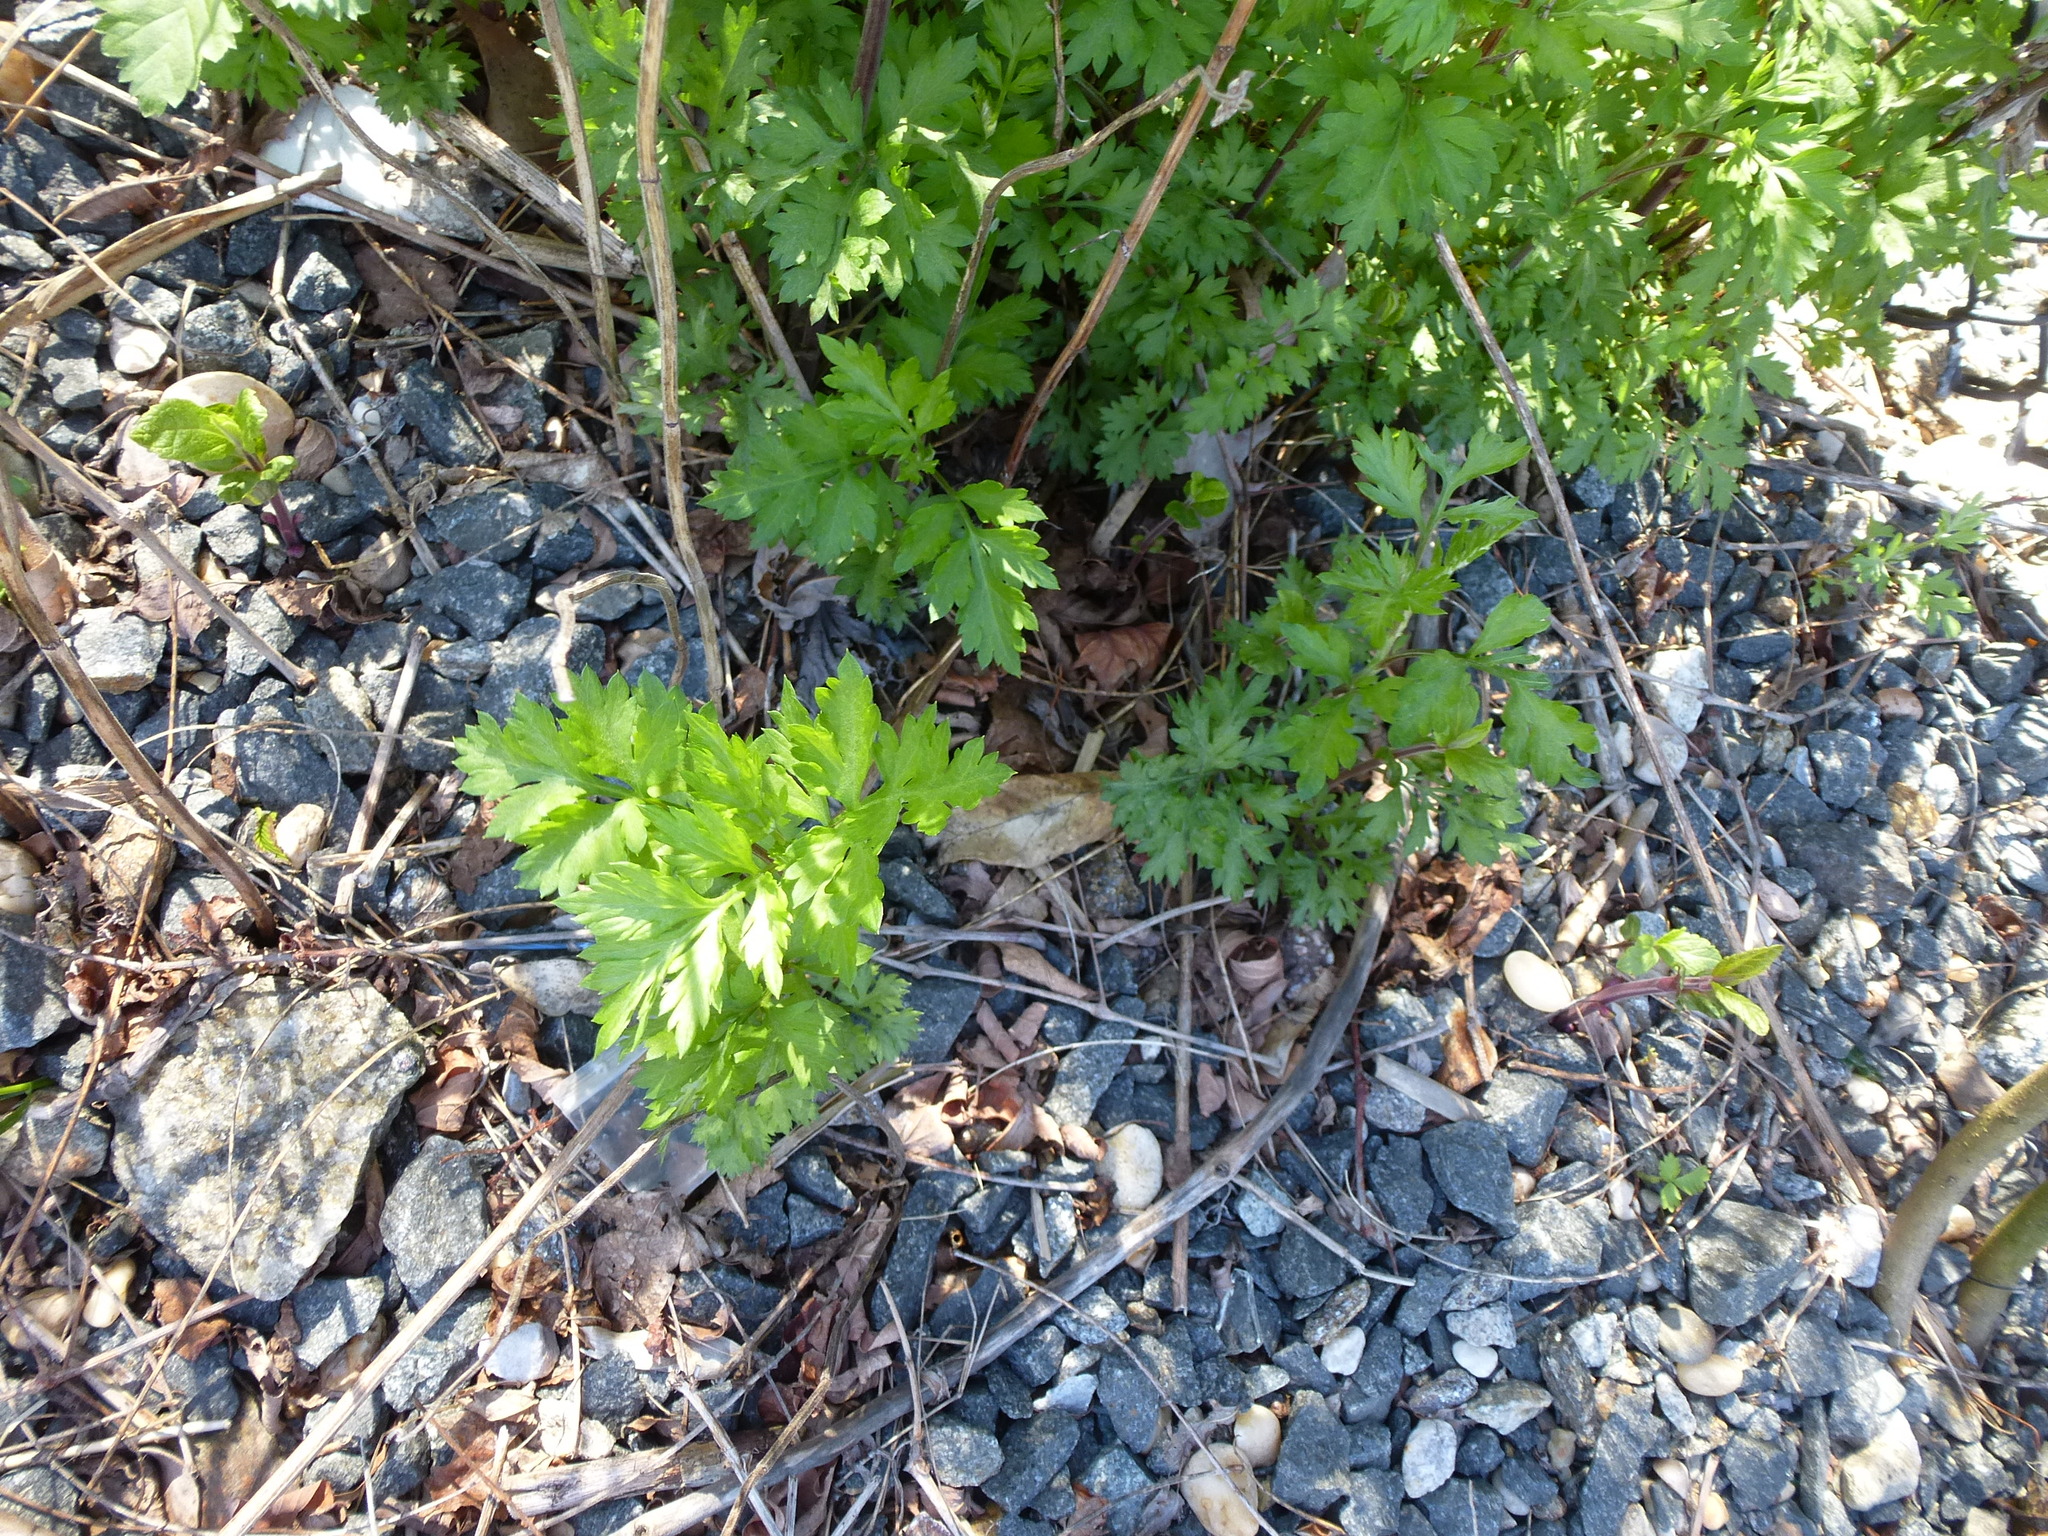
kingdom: Plantae
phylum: Tracheophyta
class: Magnoliopsida
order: Asterales
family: Asteraceae
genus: Artemisia
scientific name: Artemisia vulgaris
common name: Mugwort
